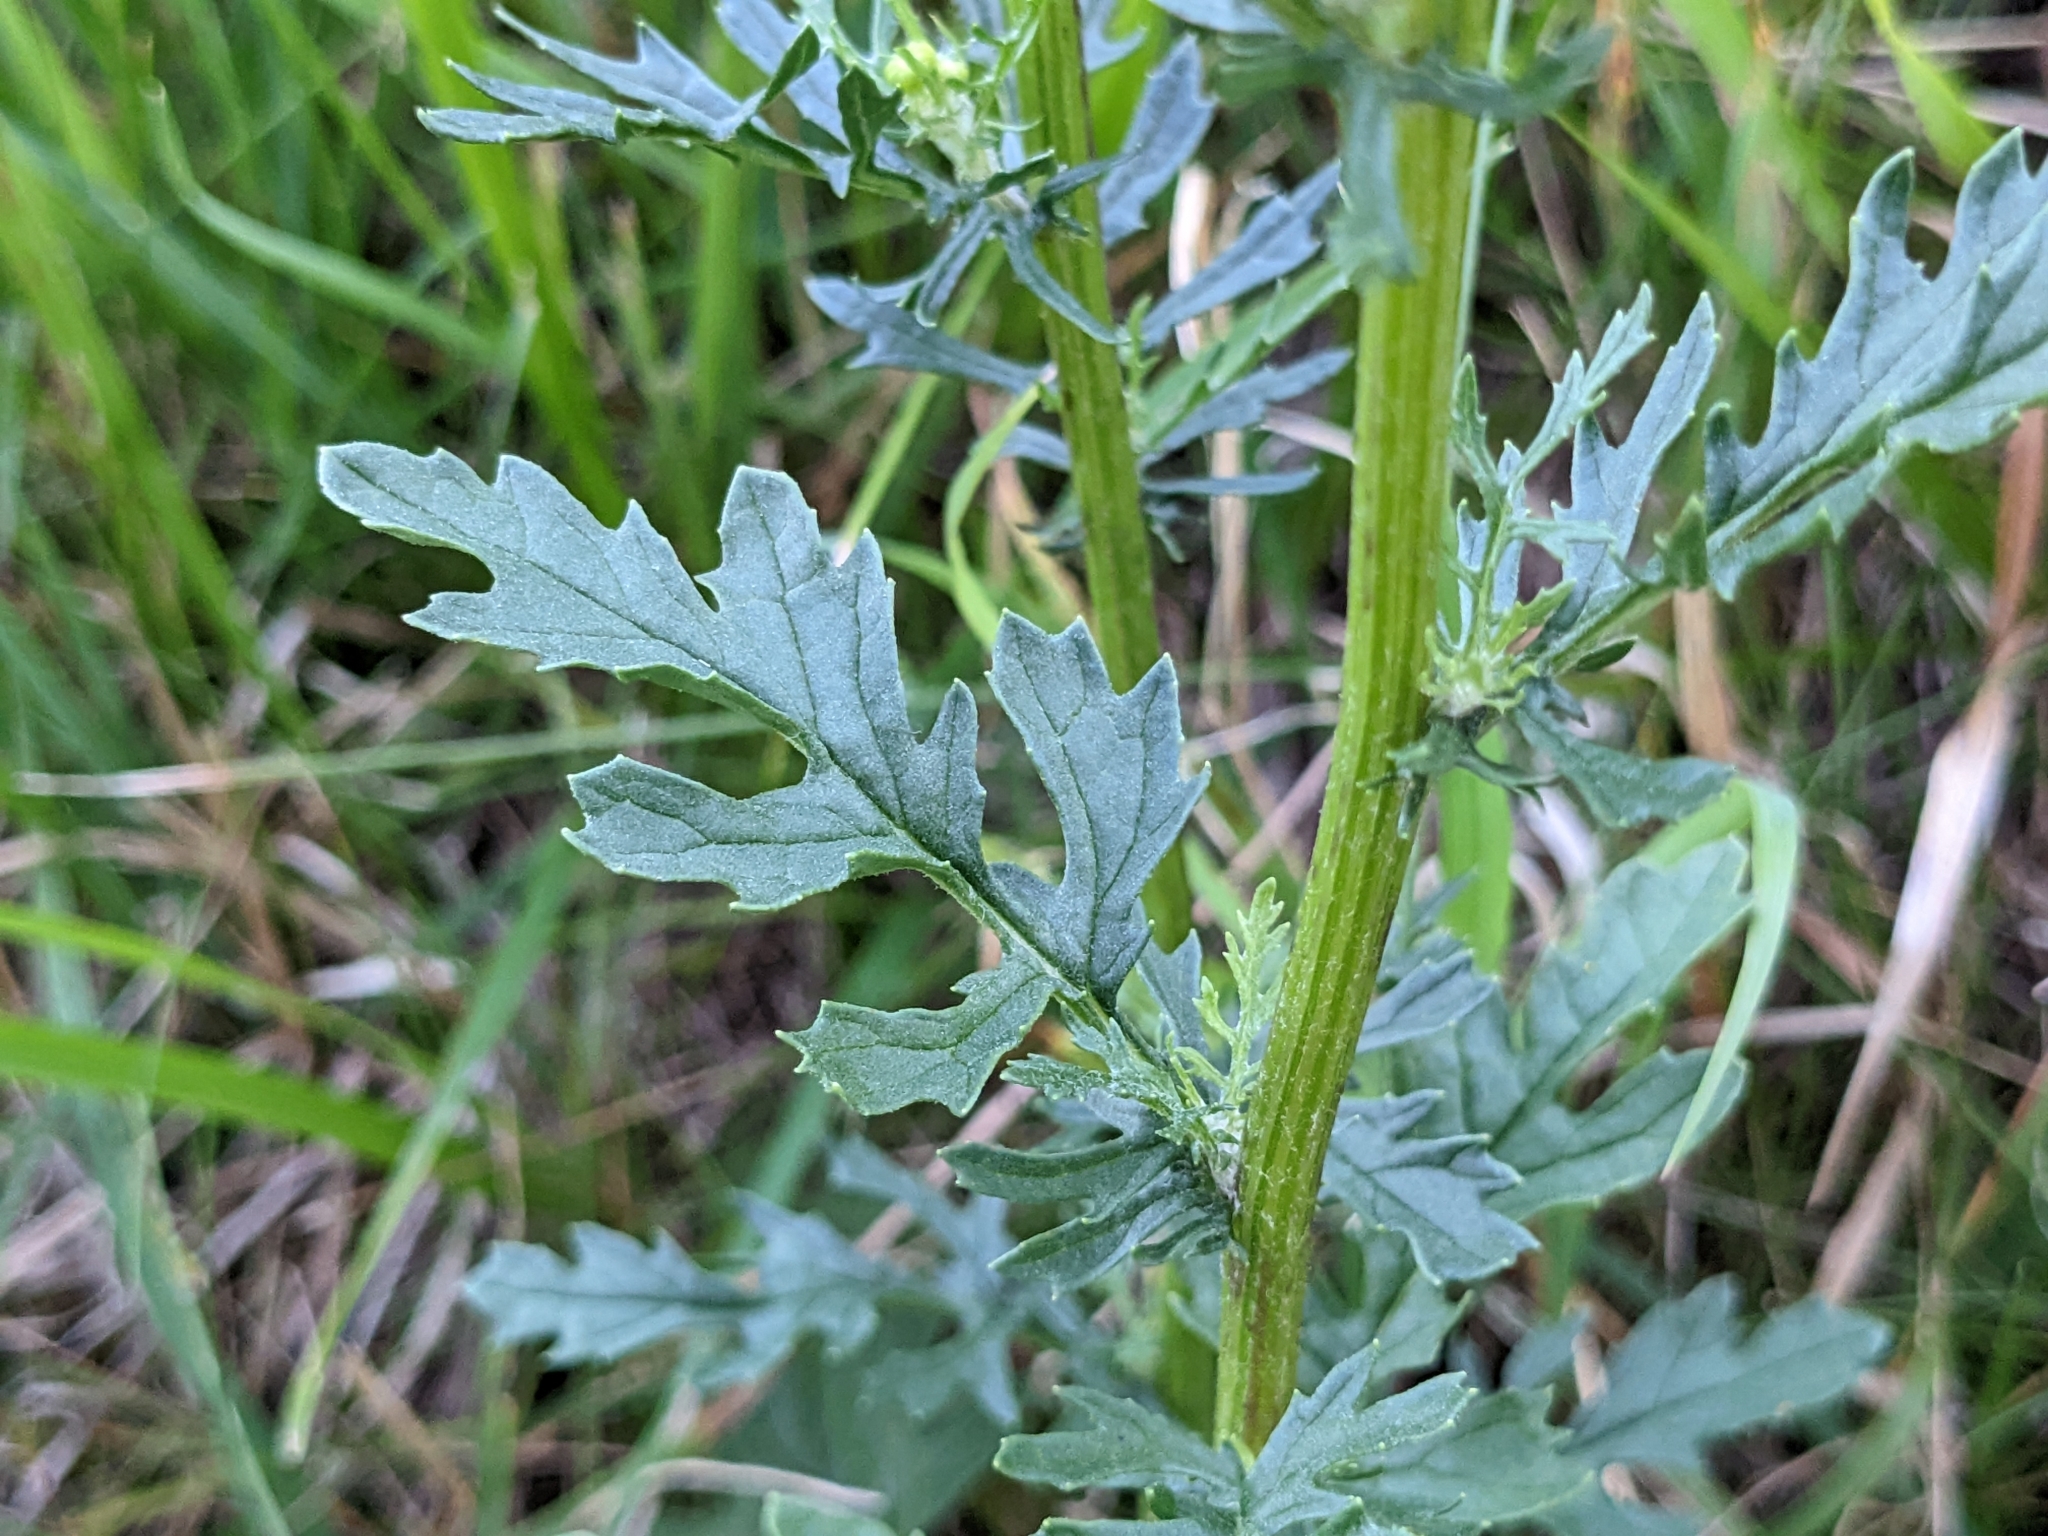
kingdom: Plantae
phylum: Tracheophyta
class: Magnoliopsida
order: Asterales
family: Asteraceae
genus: Jacobaea
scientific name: Jacobaea vulgaris
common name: Stinking willie
